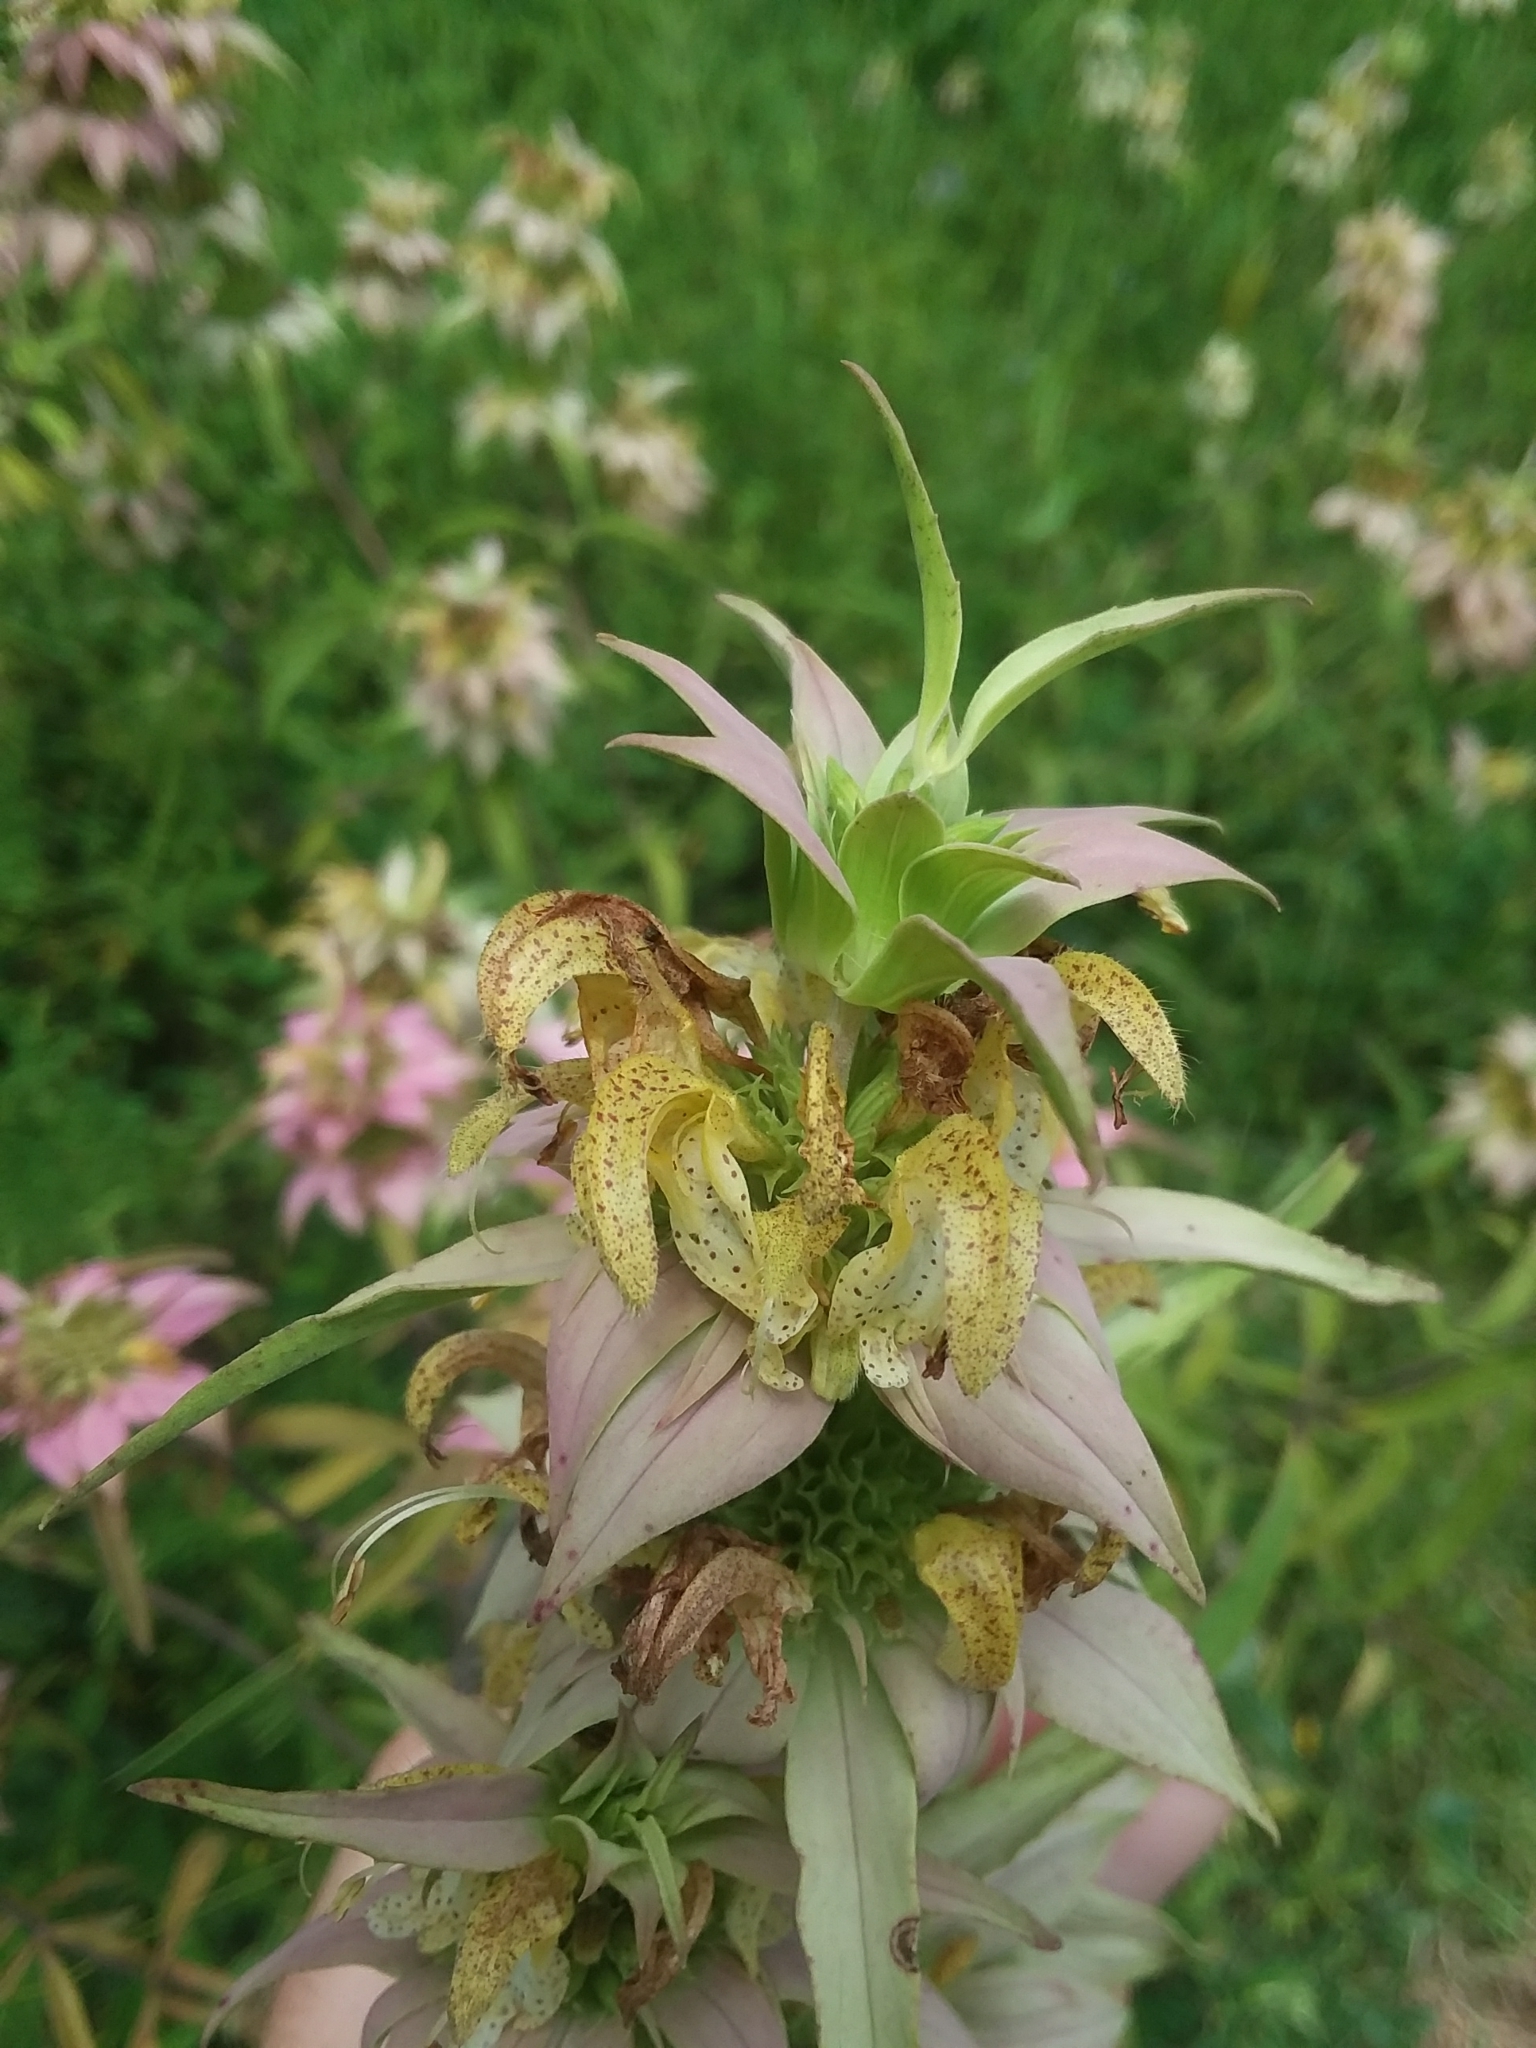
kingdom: Plantae
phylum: Tracheophyta
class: Magnoliopsida
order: Lamiales
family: Lamiaceae
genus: Monarda
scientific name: Monarda punctata
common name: Dotted monarda
